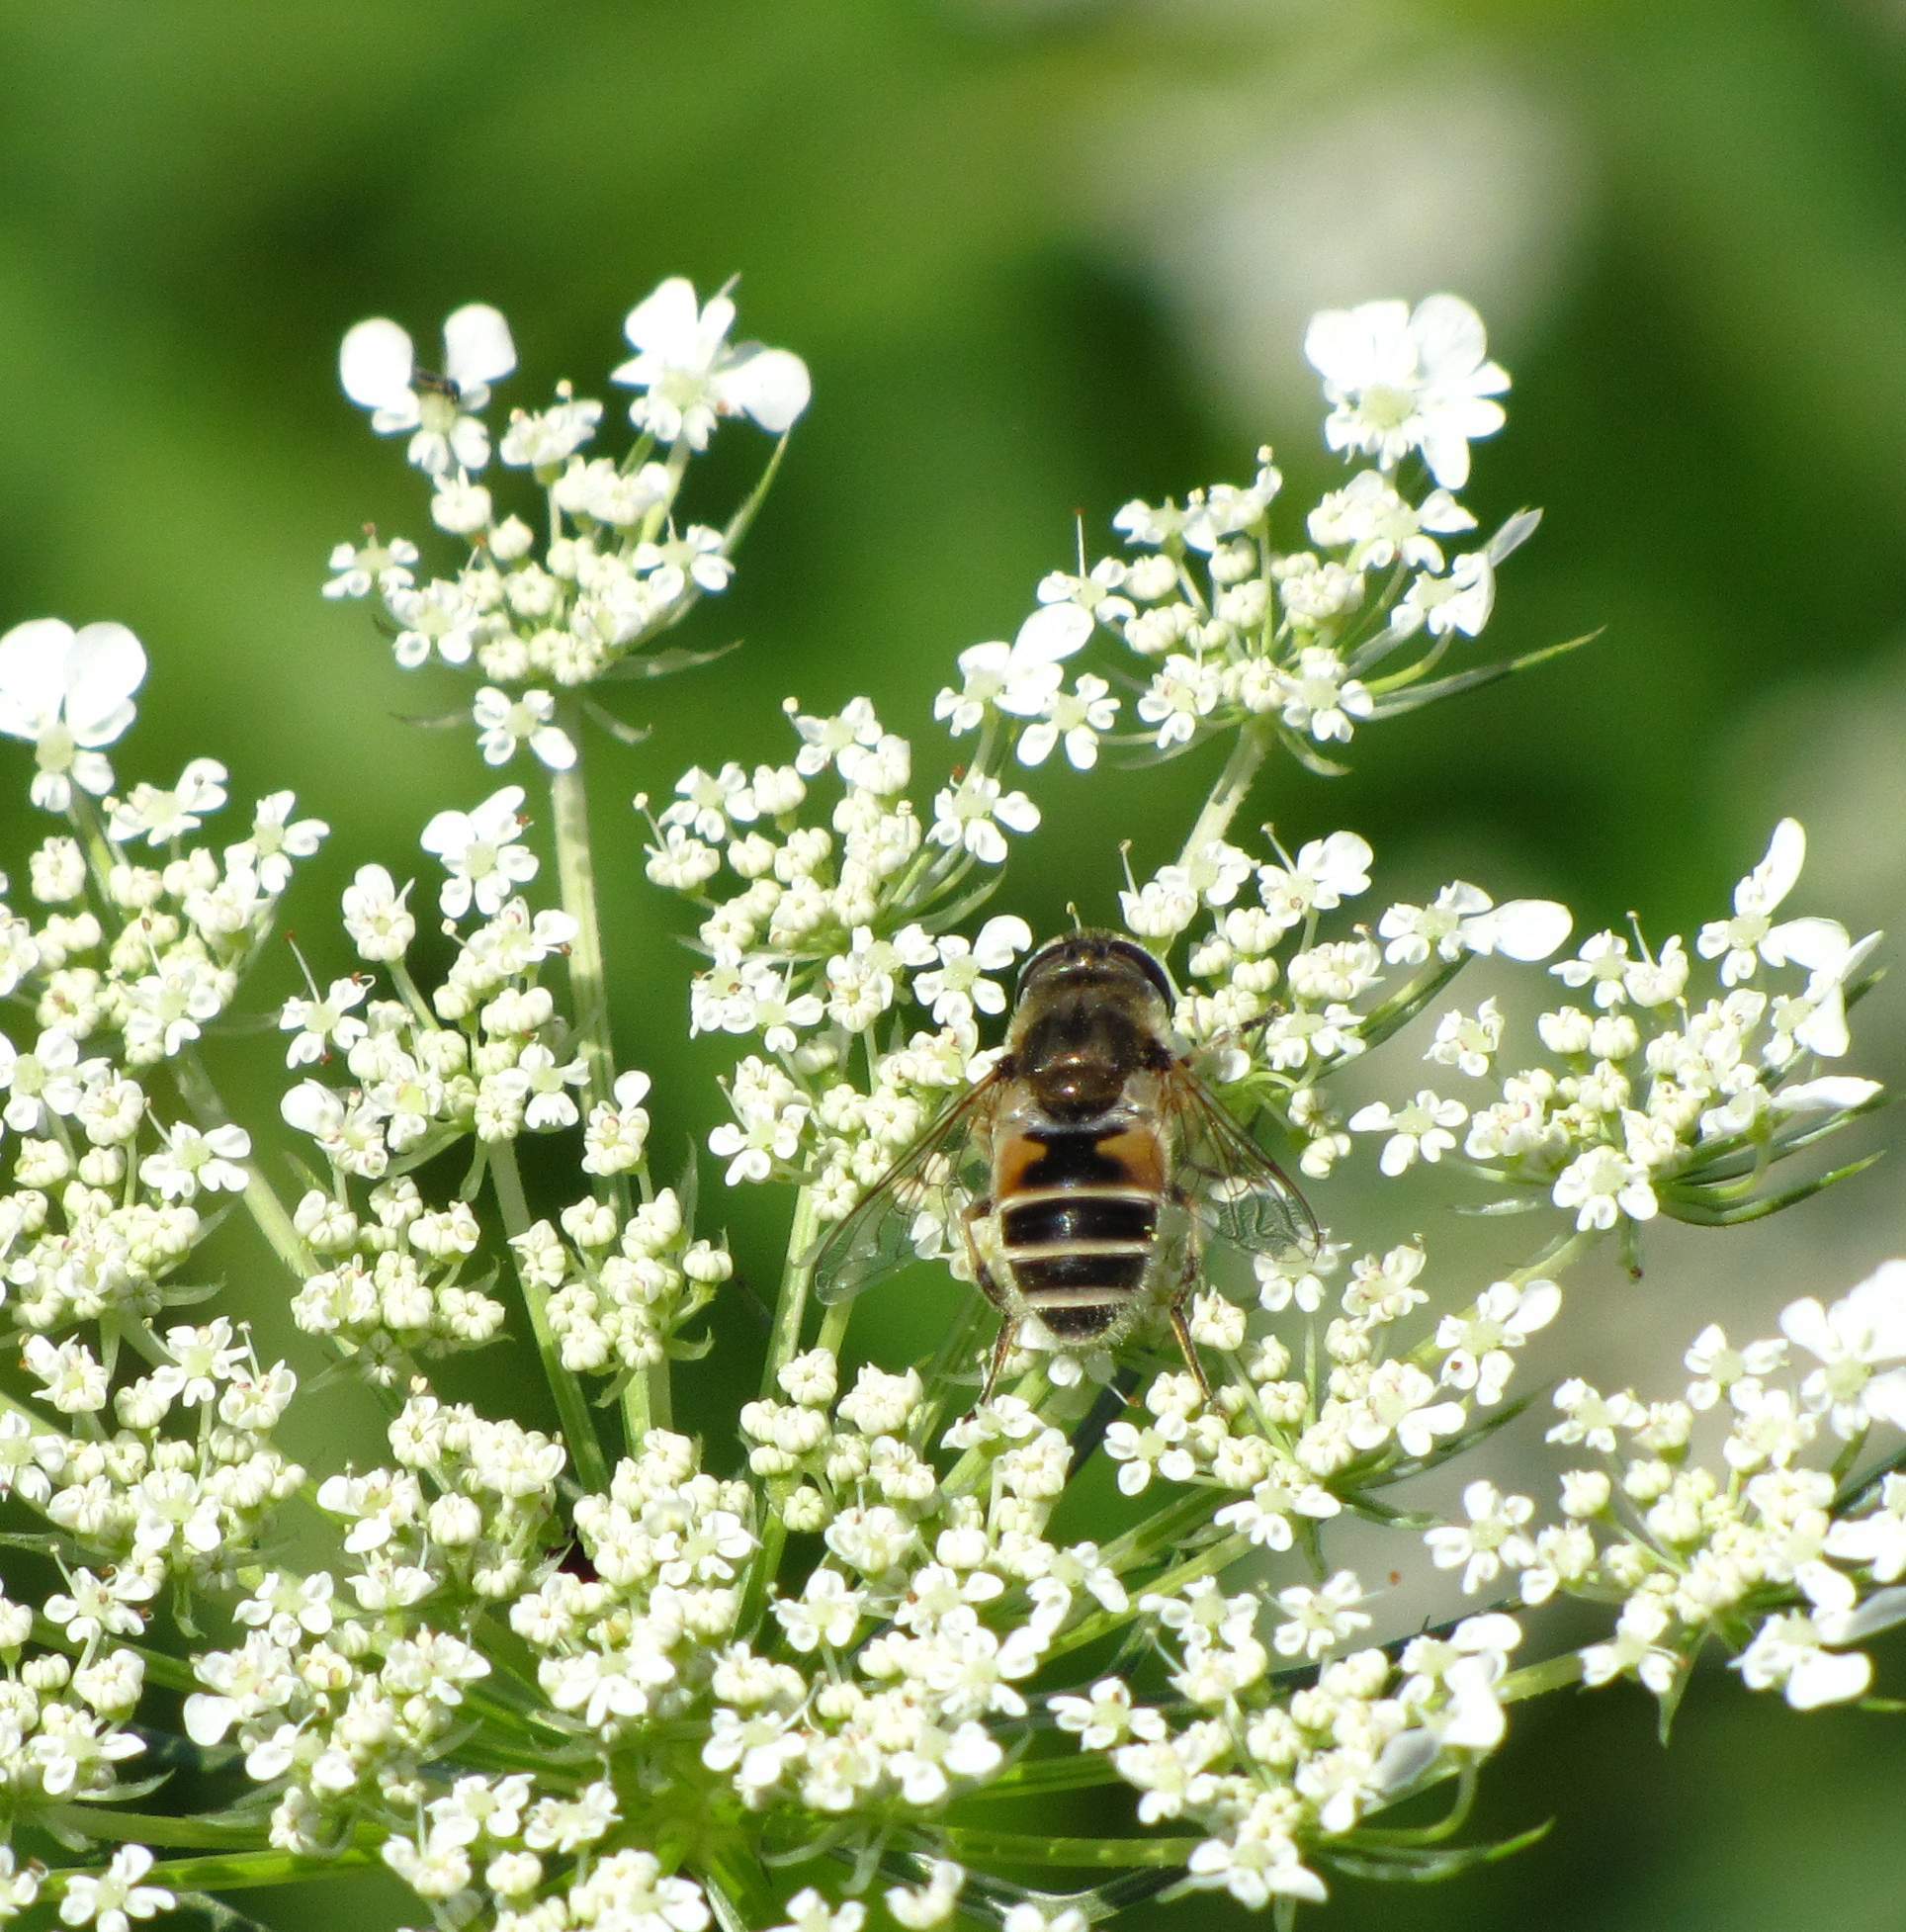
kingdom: Animalia
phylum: Arthropoda
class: Insecta
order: Diptera
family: Syrphidae
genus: Eristalis
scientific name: Eristalis arbustorum
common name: Hover fly
